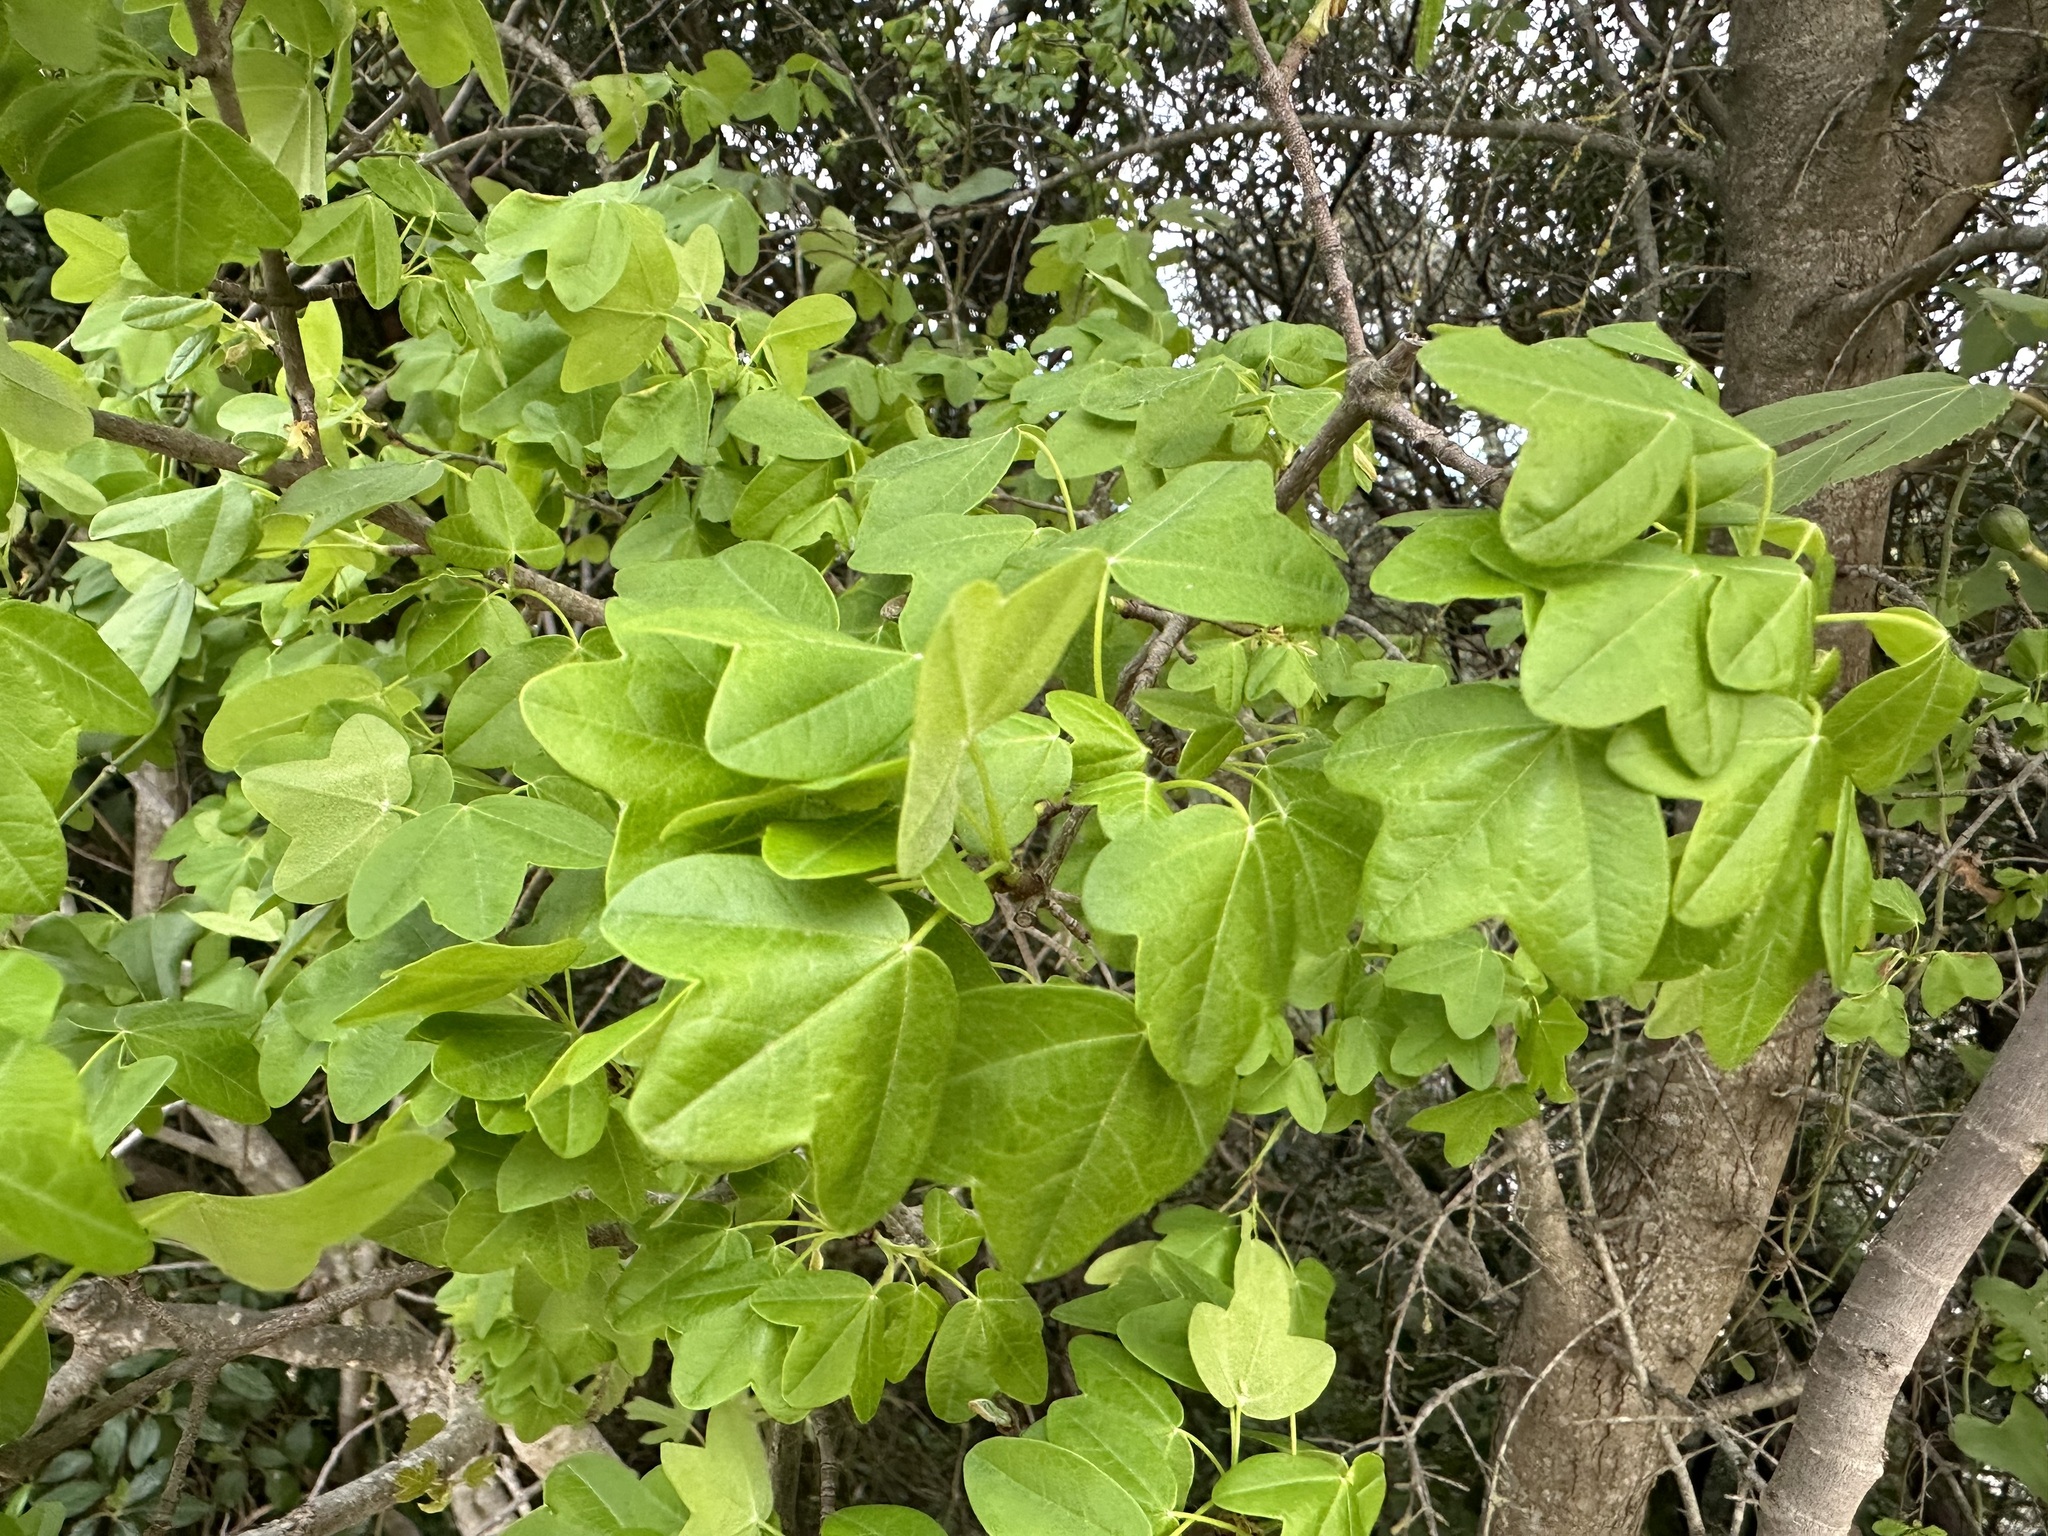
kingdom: Plantae
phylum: Tracheophyta
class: Magnoliopsida
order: Sapindales
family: Sapindaceae
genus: Acer
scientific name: Acer monspessulanum
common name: Montpellier maple
